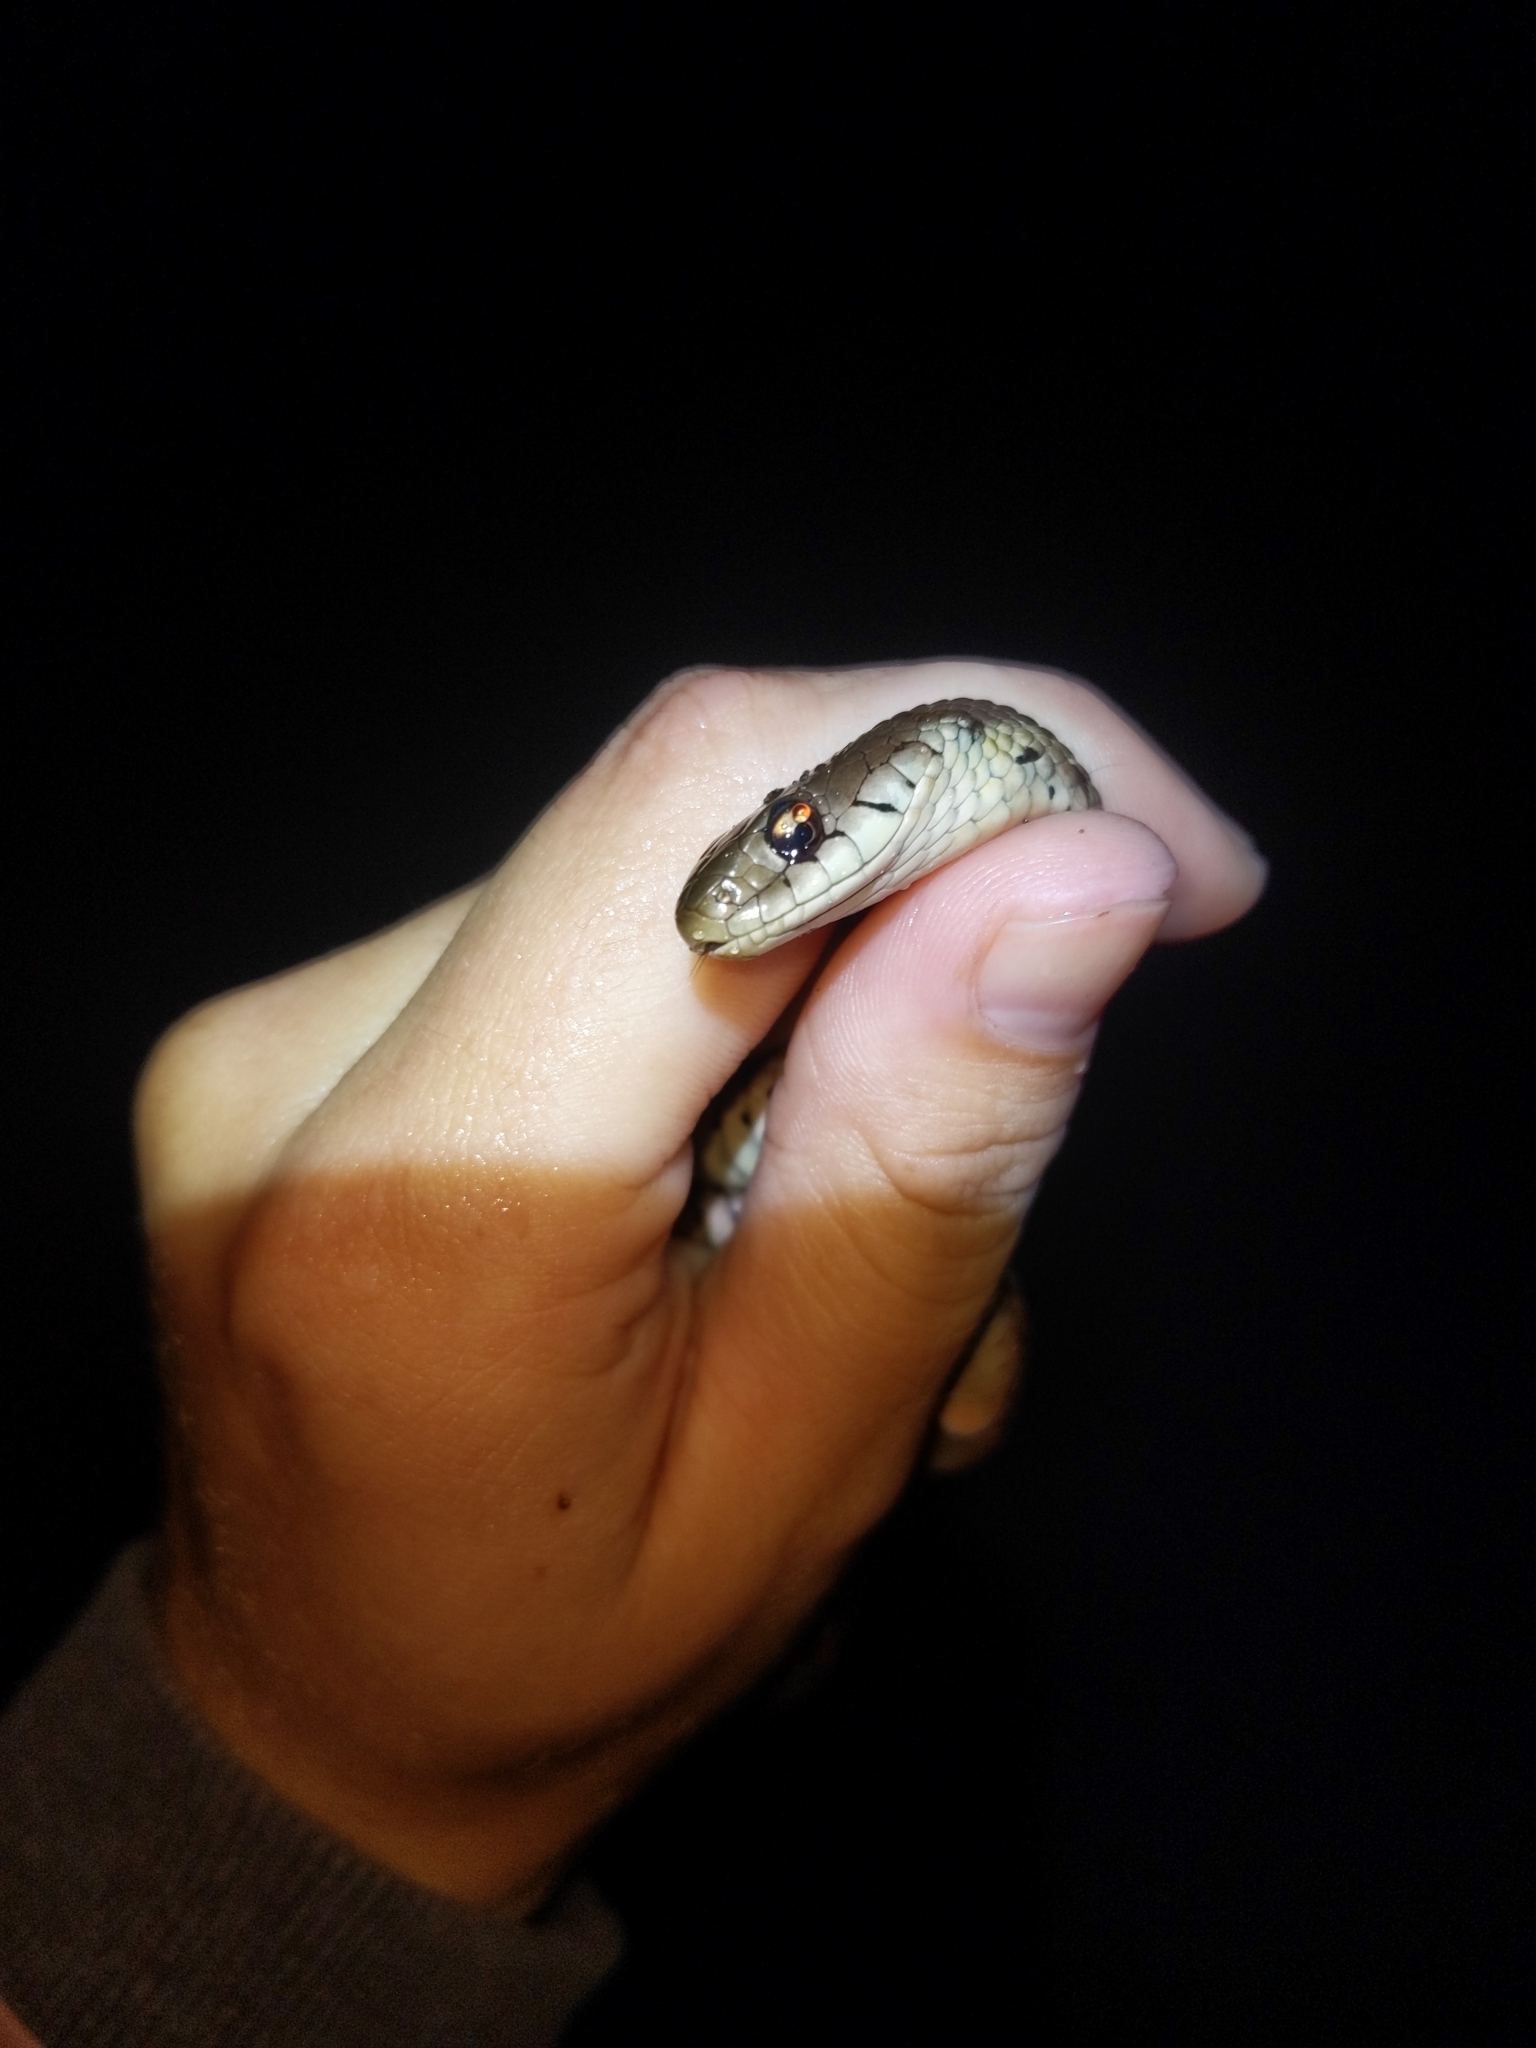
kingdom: Animalia
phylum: Chordata
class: Squamata
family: Colubridae
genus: Thamnophis
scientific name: Thamnophis sirtalis
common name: Common garter snake
